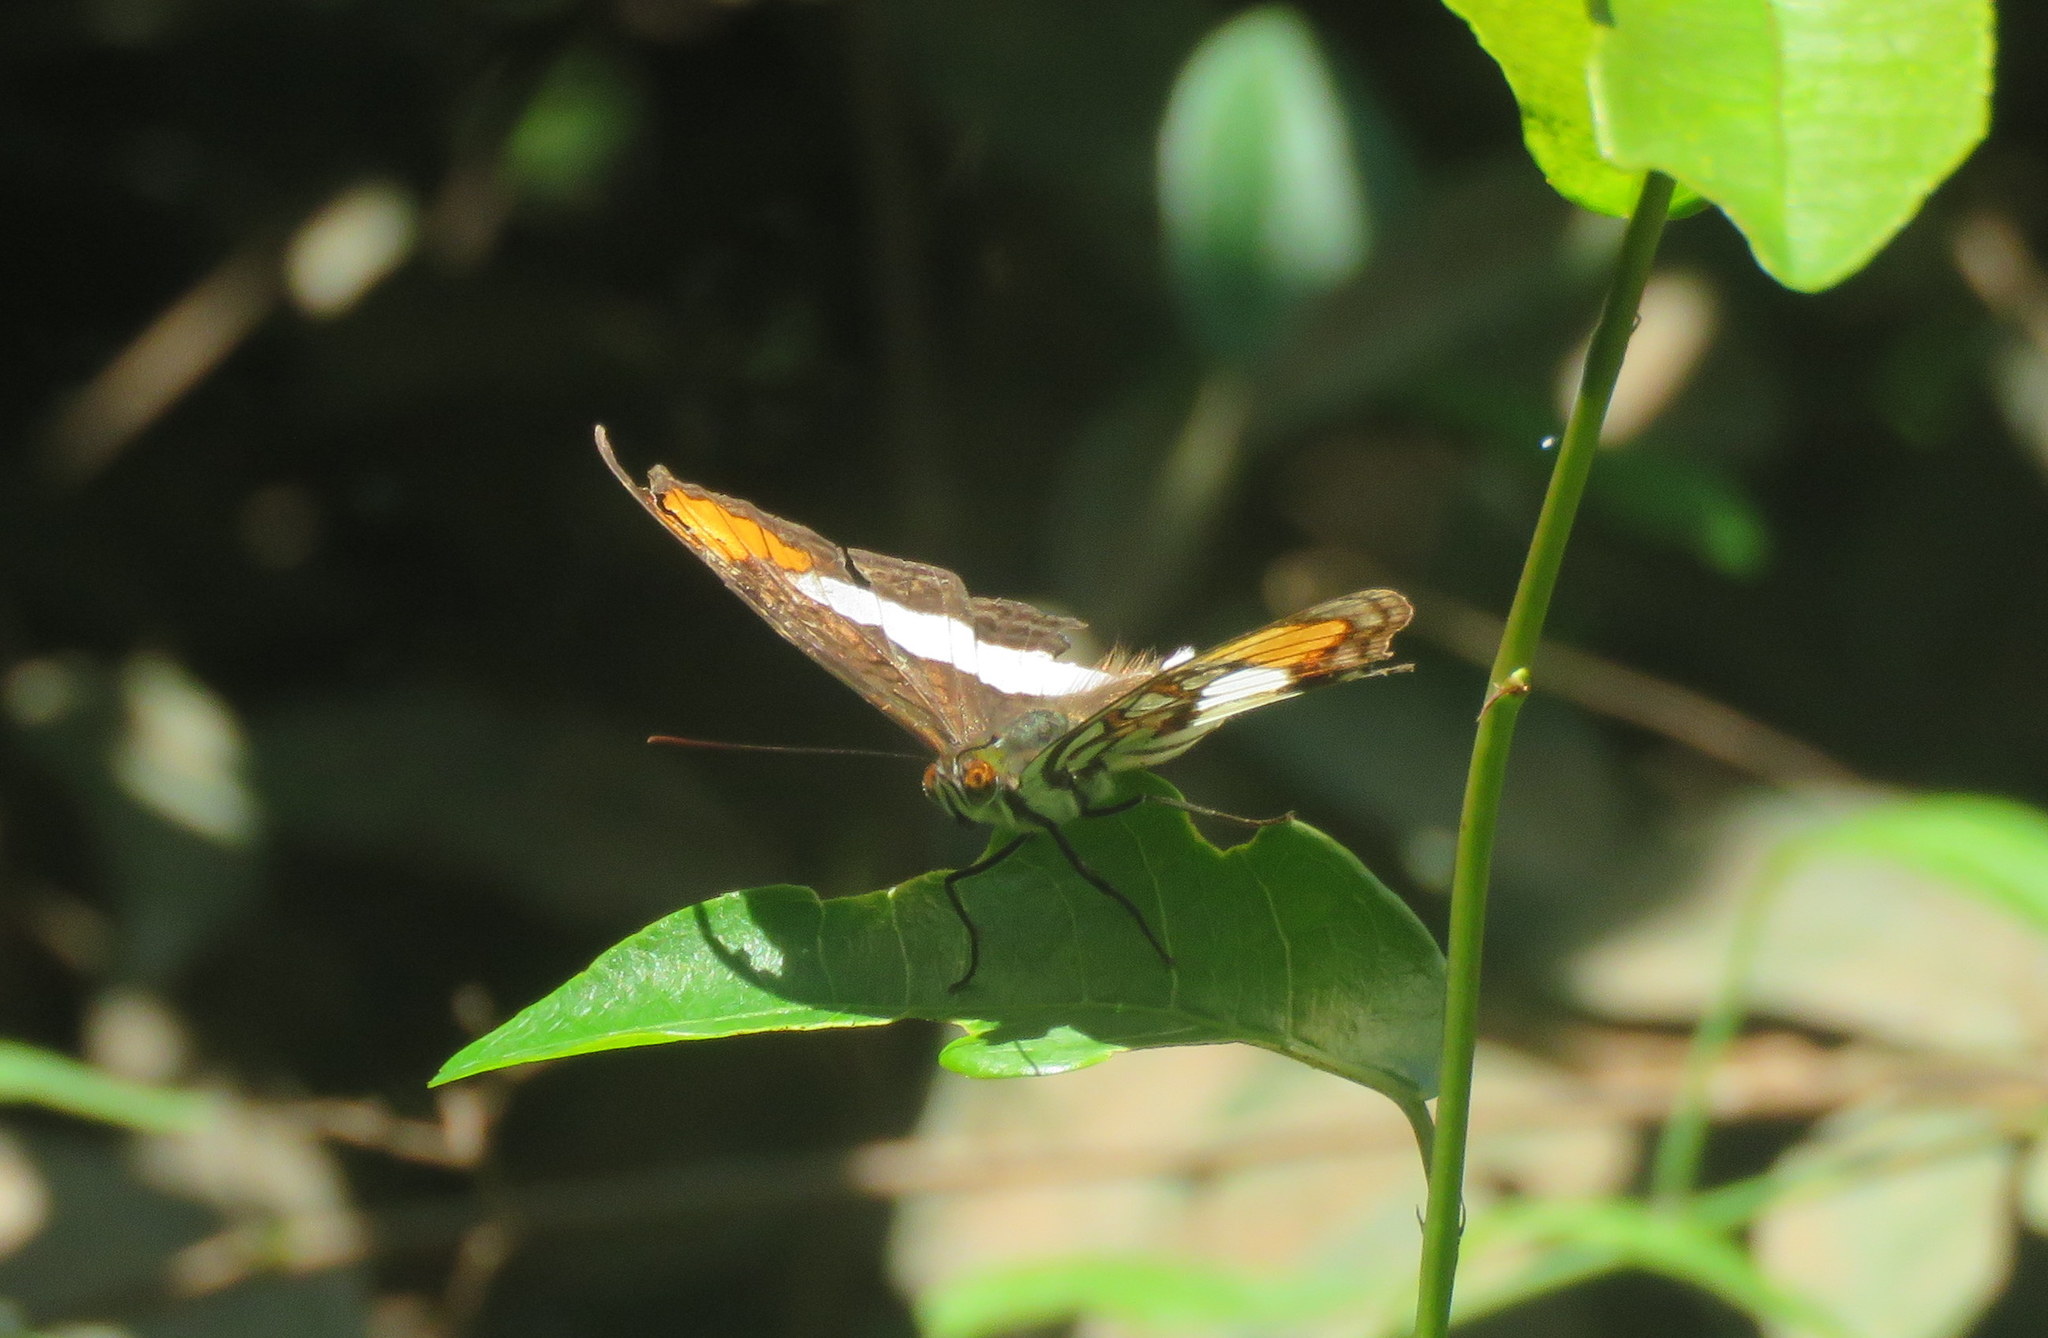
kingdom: Animalia
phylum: Arthropoda
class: Insecta
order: Lepidoptera
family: Nymphalidae
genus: Limenitis
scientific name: Limenitis zea
